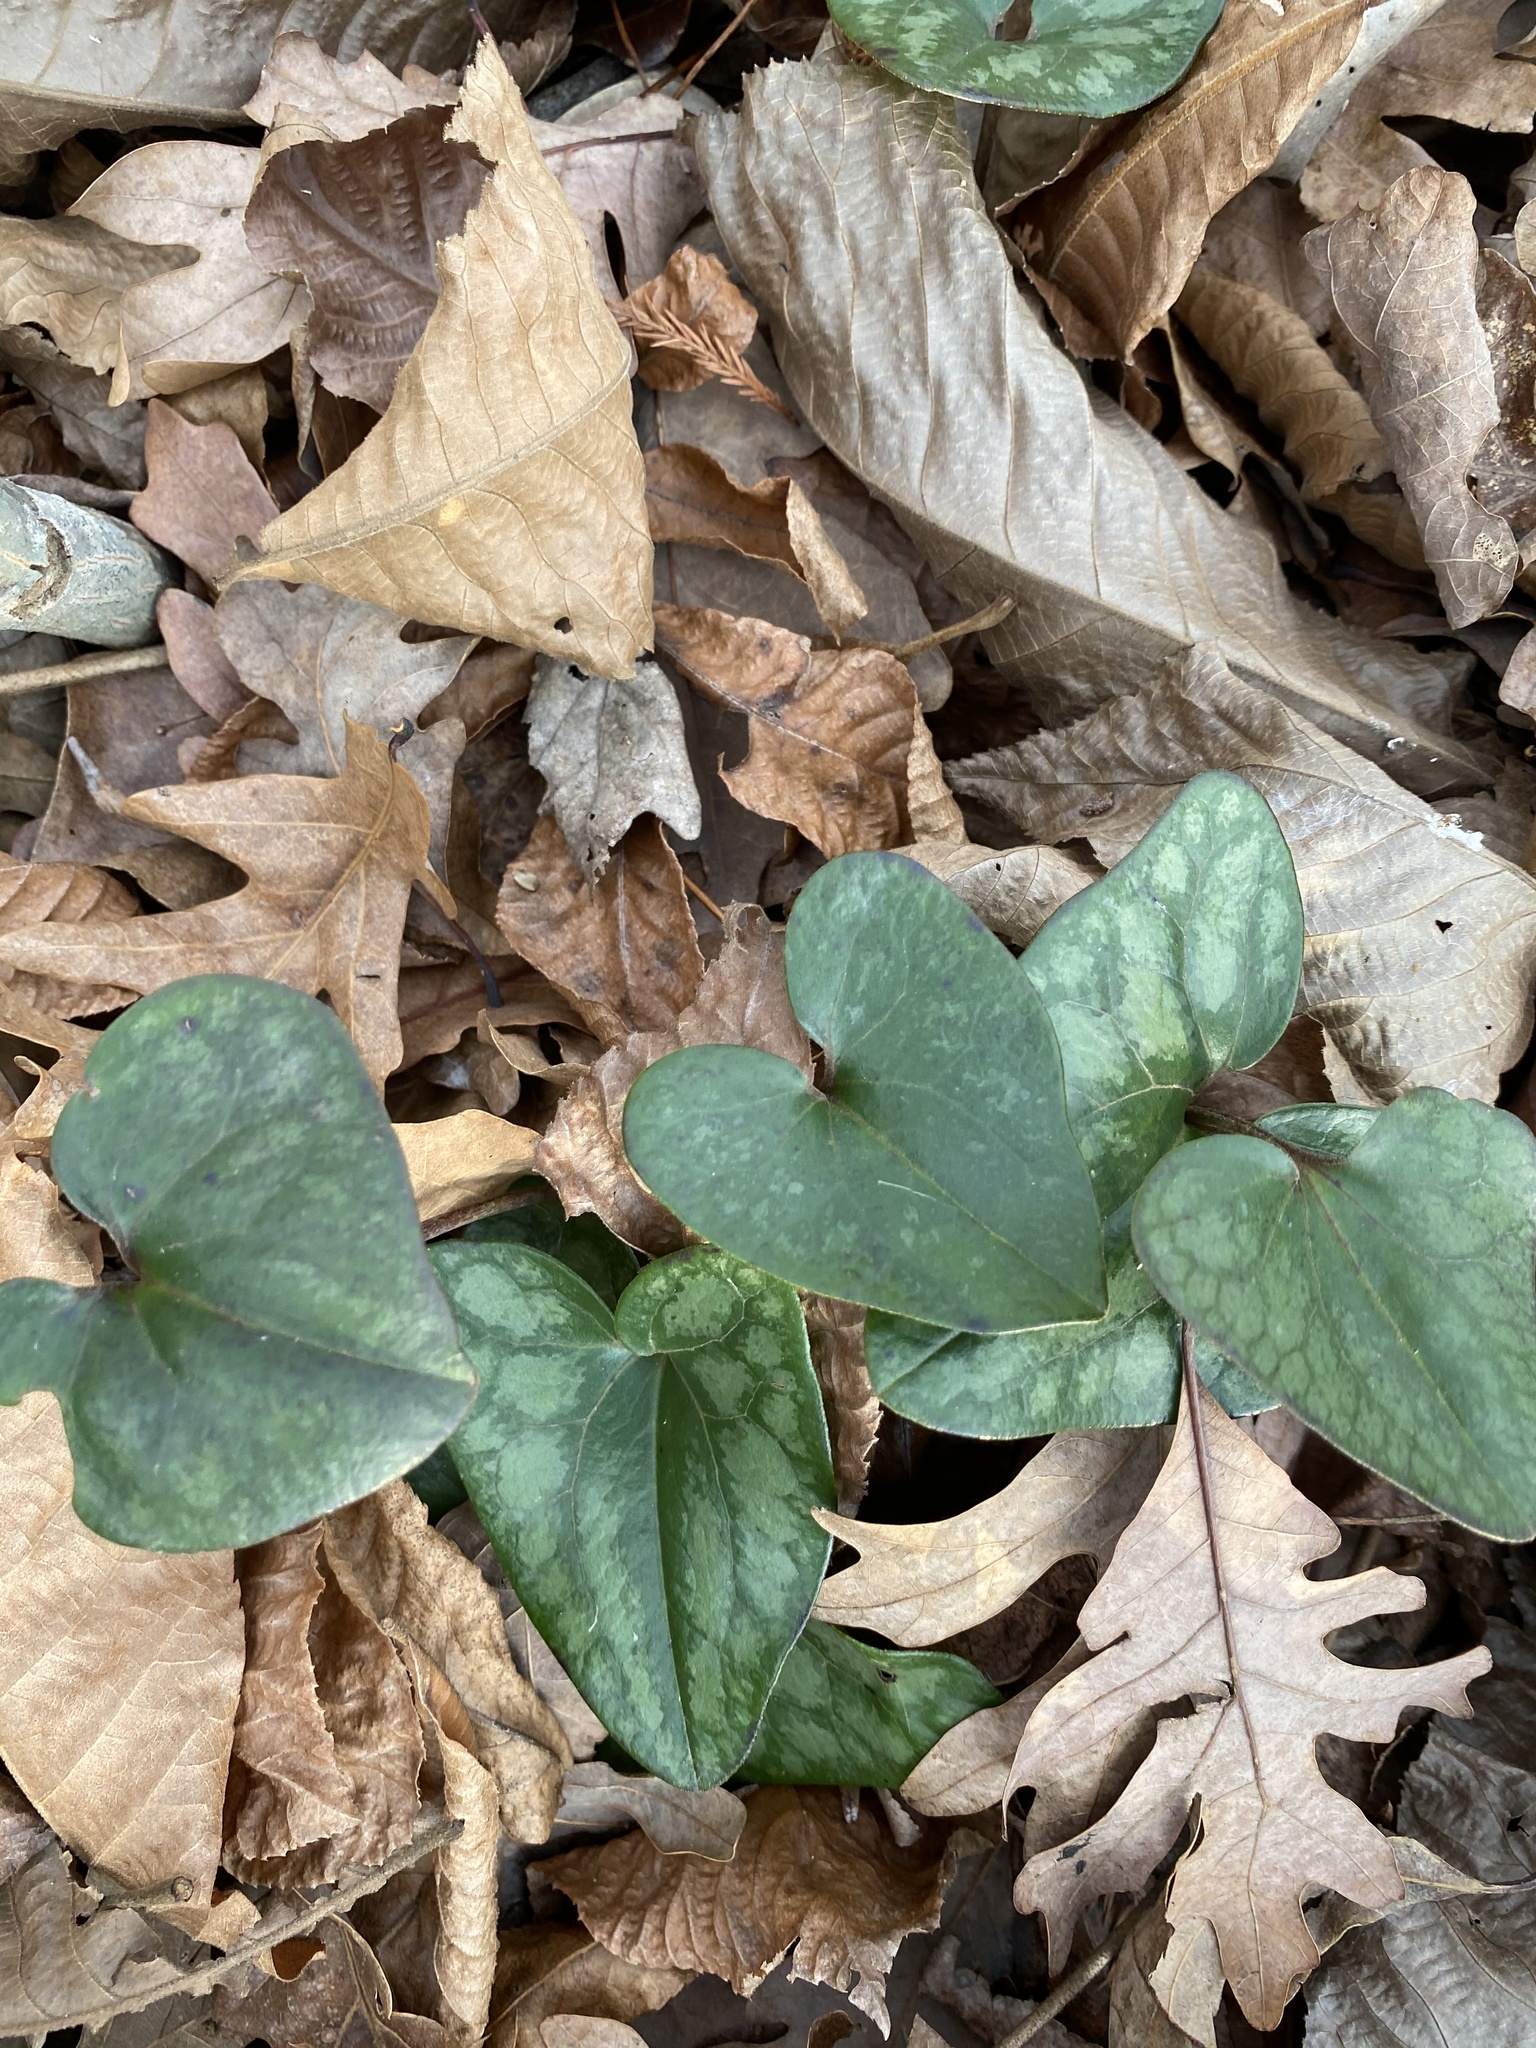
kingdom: Plantae
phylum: Tracheophyta
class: Magnoliopsida
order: Piperales
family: Aristolochiaceae
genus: Hexastylis
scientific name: Hexastylis arifolia
